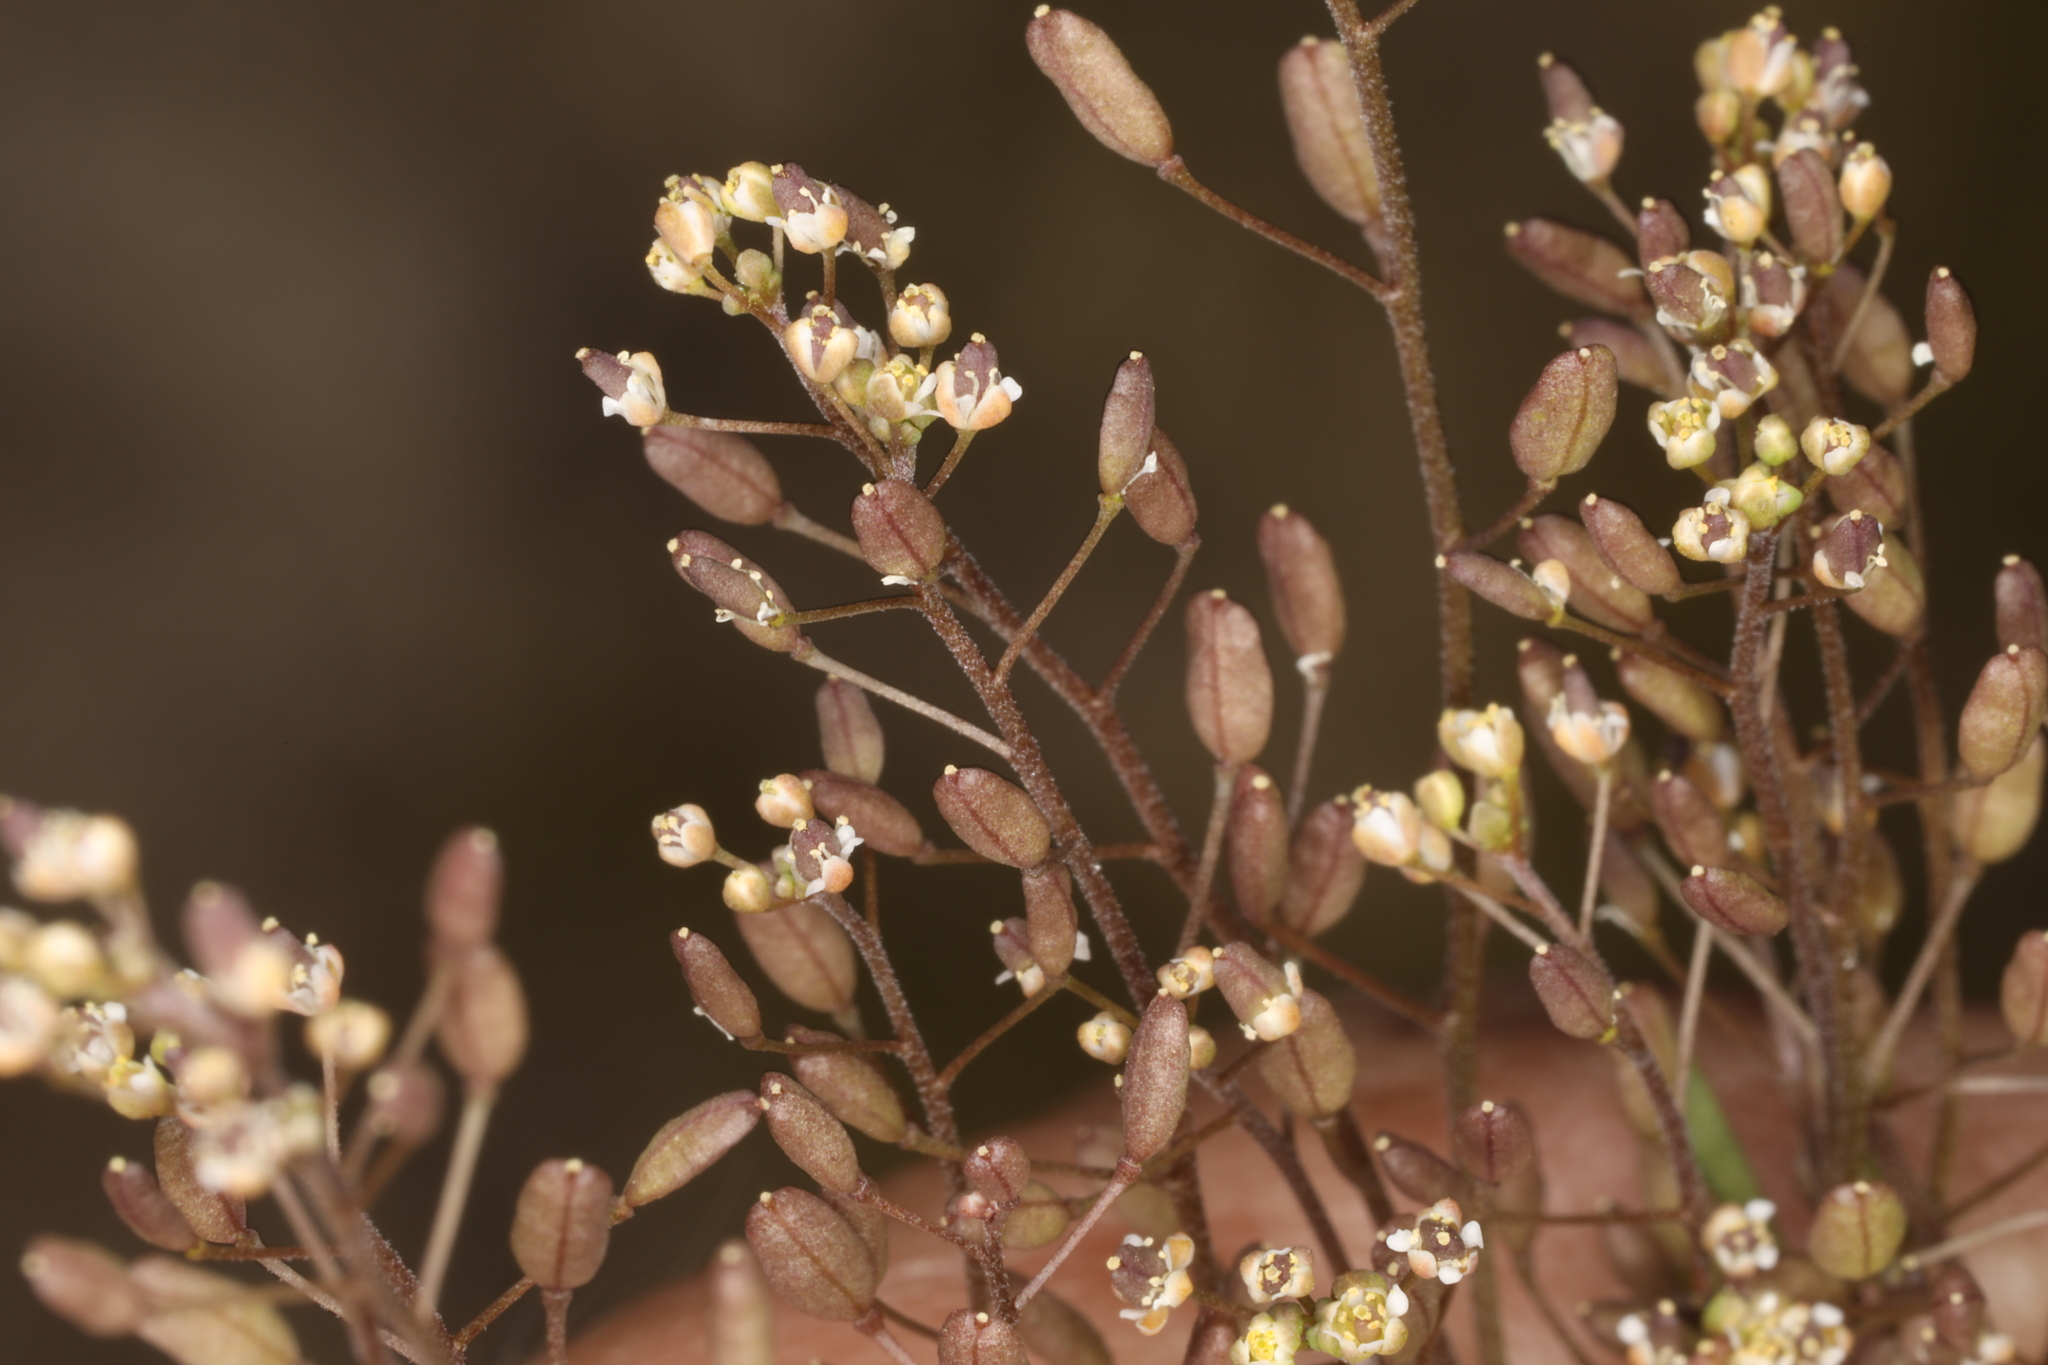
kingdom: Plantae
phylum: Tracheophyta
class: Magnoliopsida
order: Brassicales
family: Brassicaceae
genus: Hornungia
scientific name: Hornungia procumbens
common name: Oval purse
